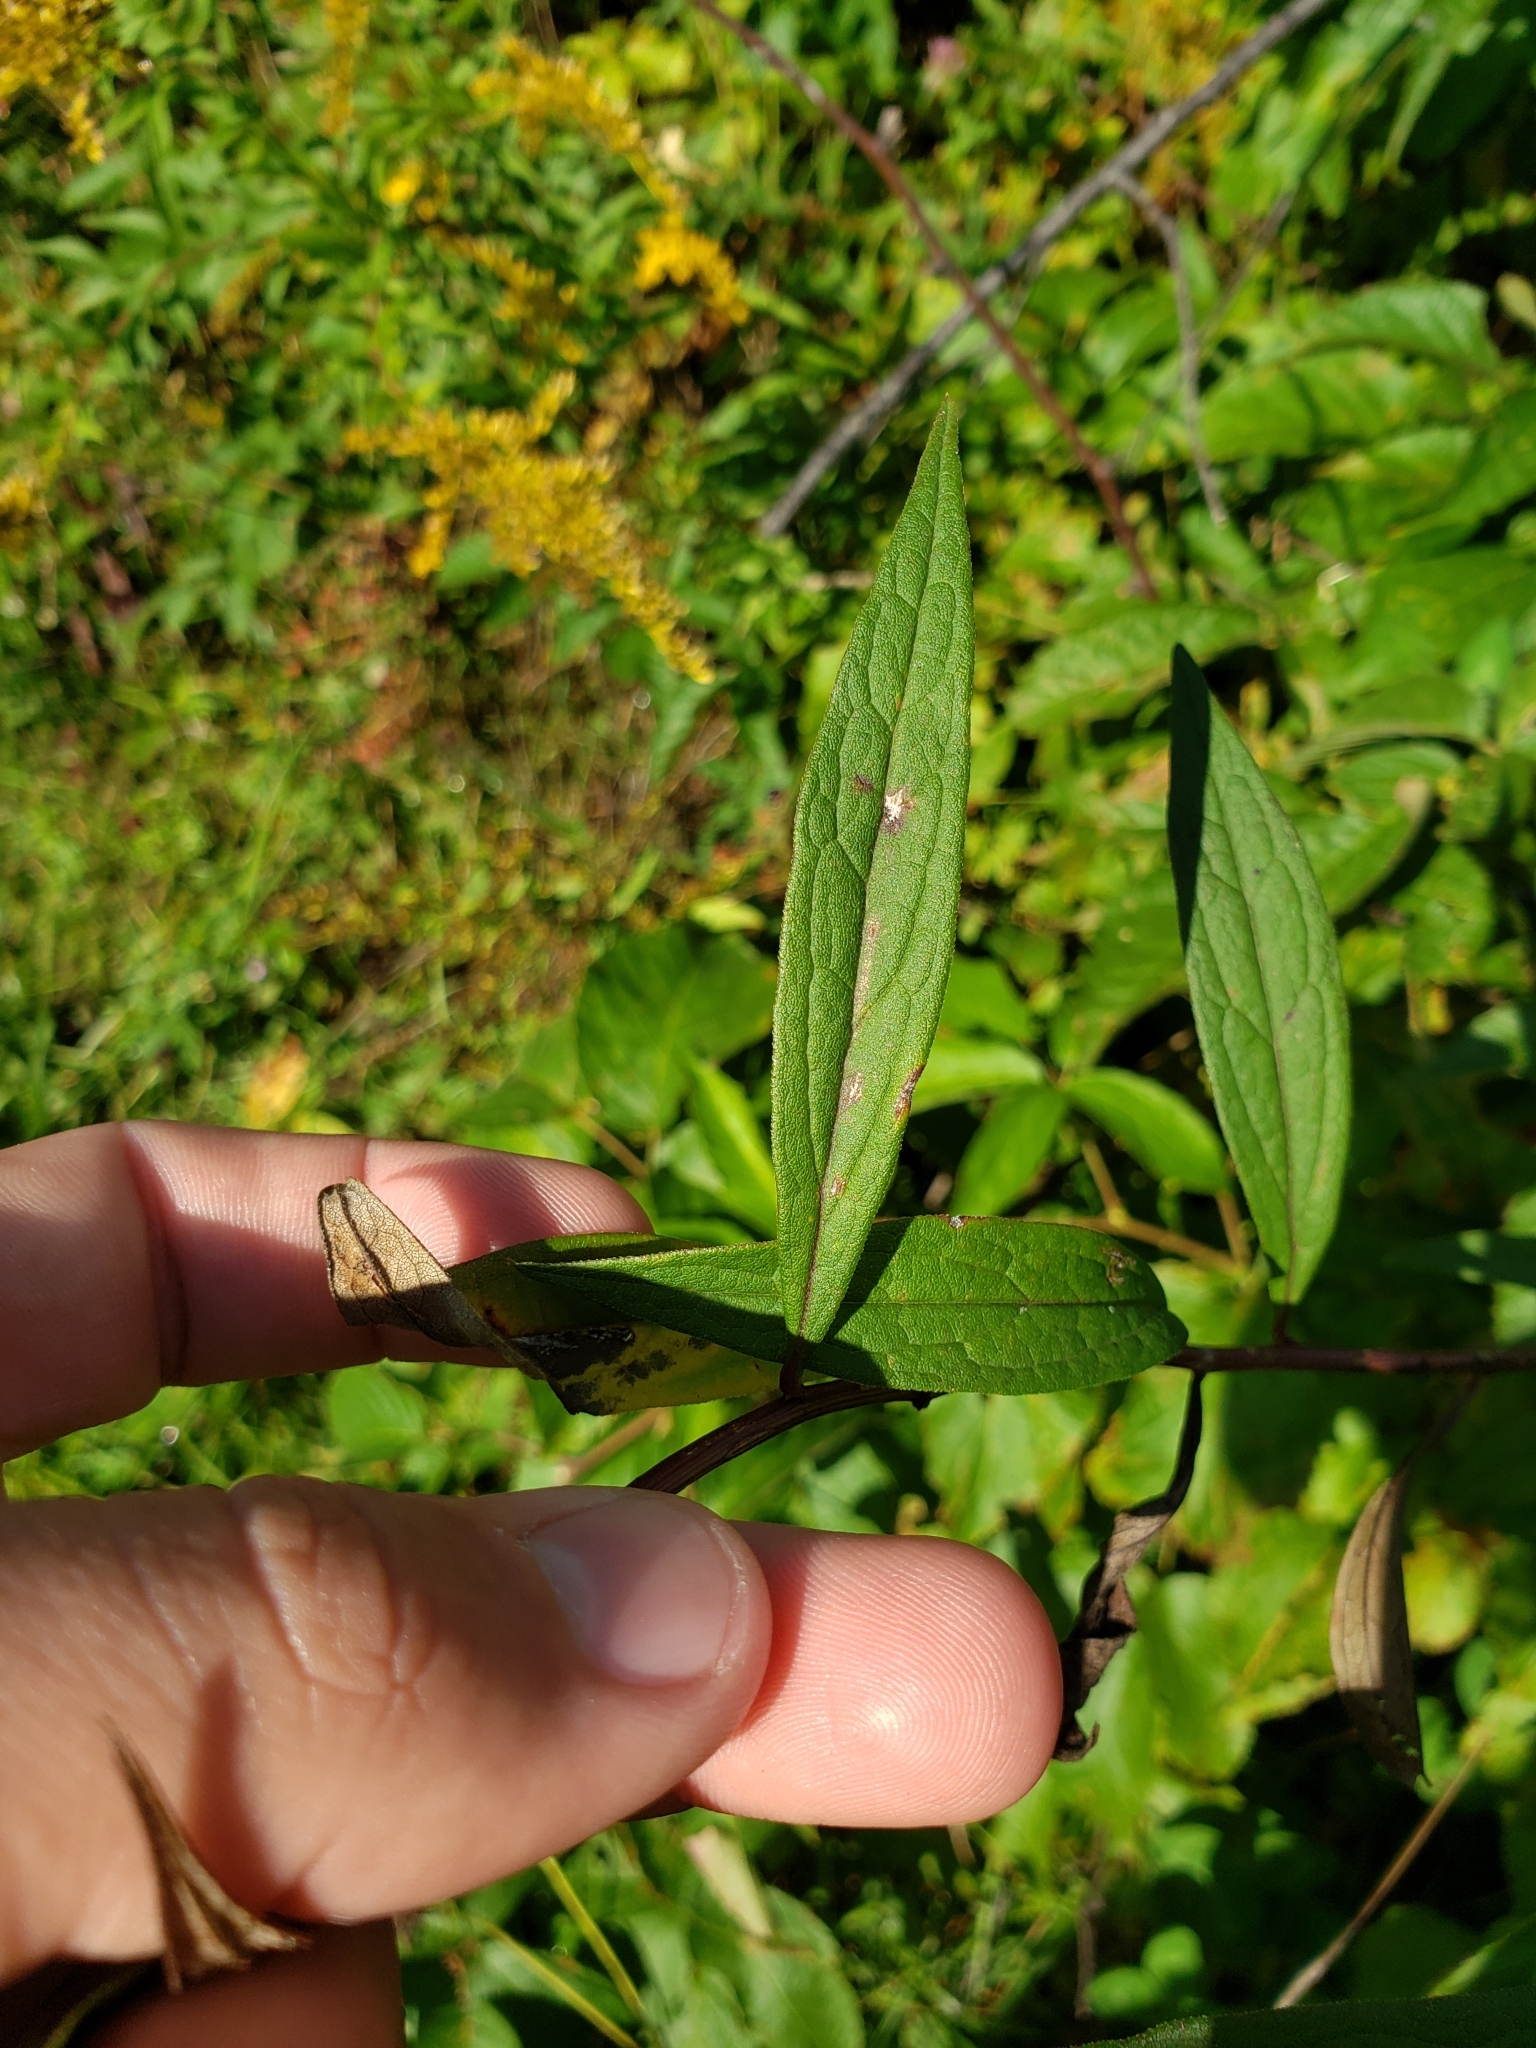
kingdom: Plantae
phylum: Tracheophyta
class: Magnoliopsida
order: Asterales
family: Asteraceae
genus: Doellingeria
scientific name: Doellingeria umbellata
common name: Flat-top white aster
